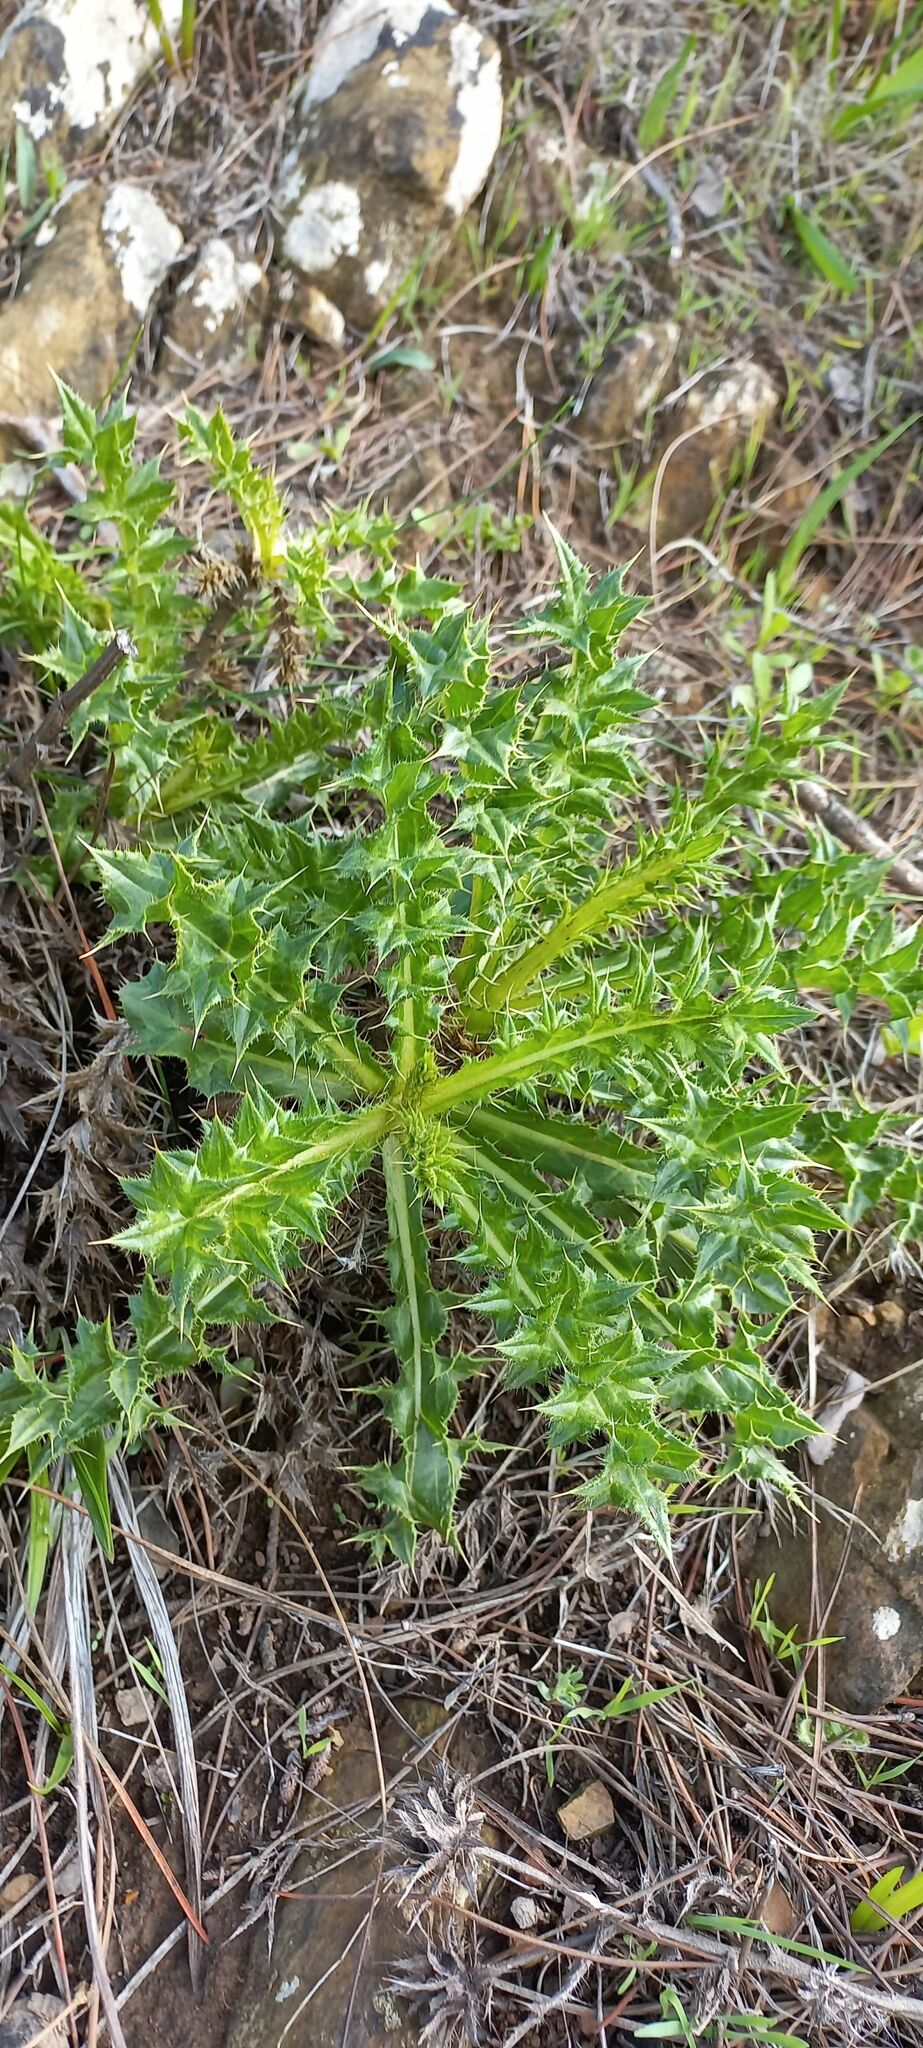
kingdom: Plantae
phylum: Tracheophyta
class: Magnoliopsida
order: Asterales
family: Asteraceae
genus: Berkheya
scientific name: Berkheya carlinifolia
